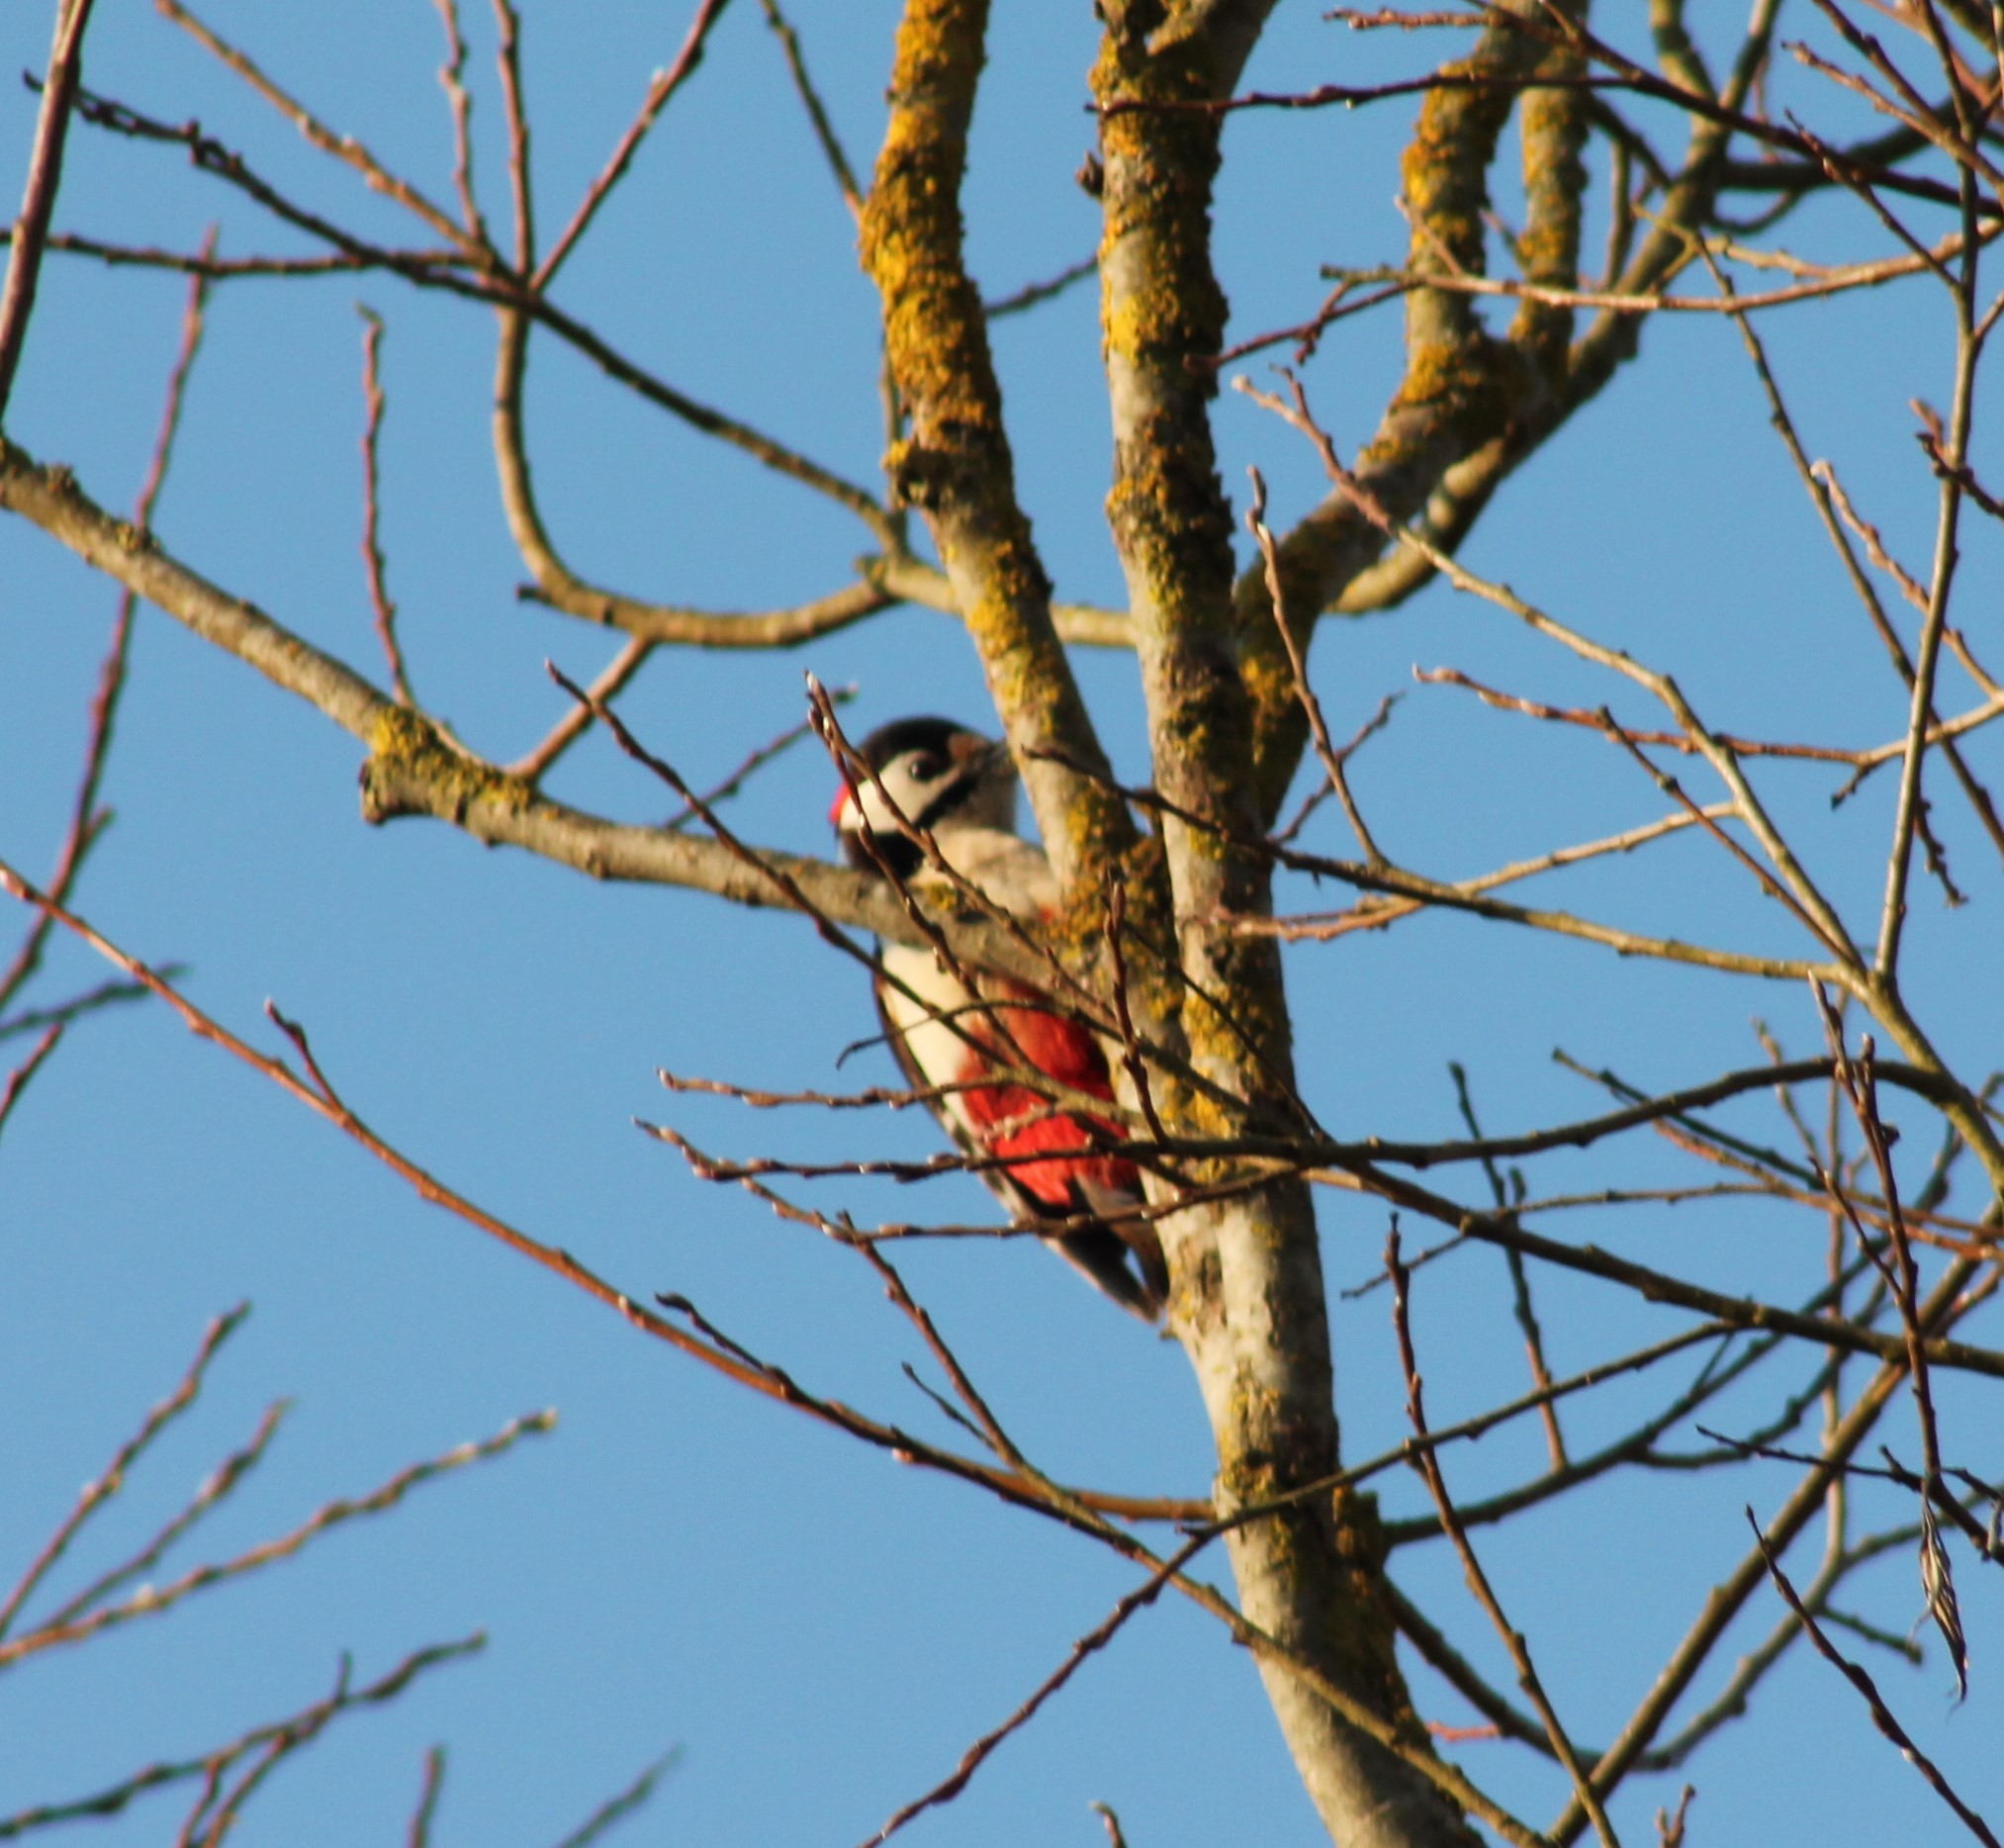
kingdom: Animalia
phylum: Chordata
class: Aves
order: Piciformes
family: Picidae
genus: Dendrocopos
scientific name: Dendrocopos major
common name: Great spotted woodpecker
